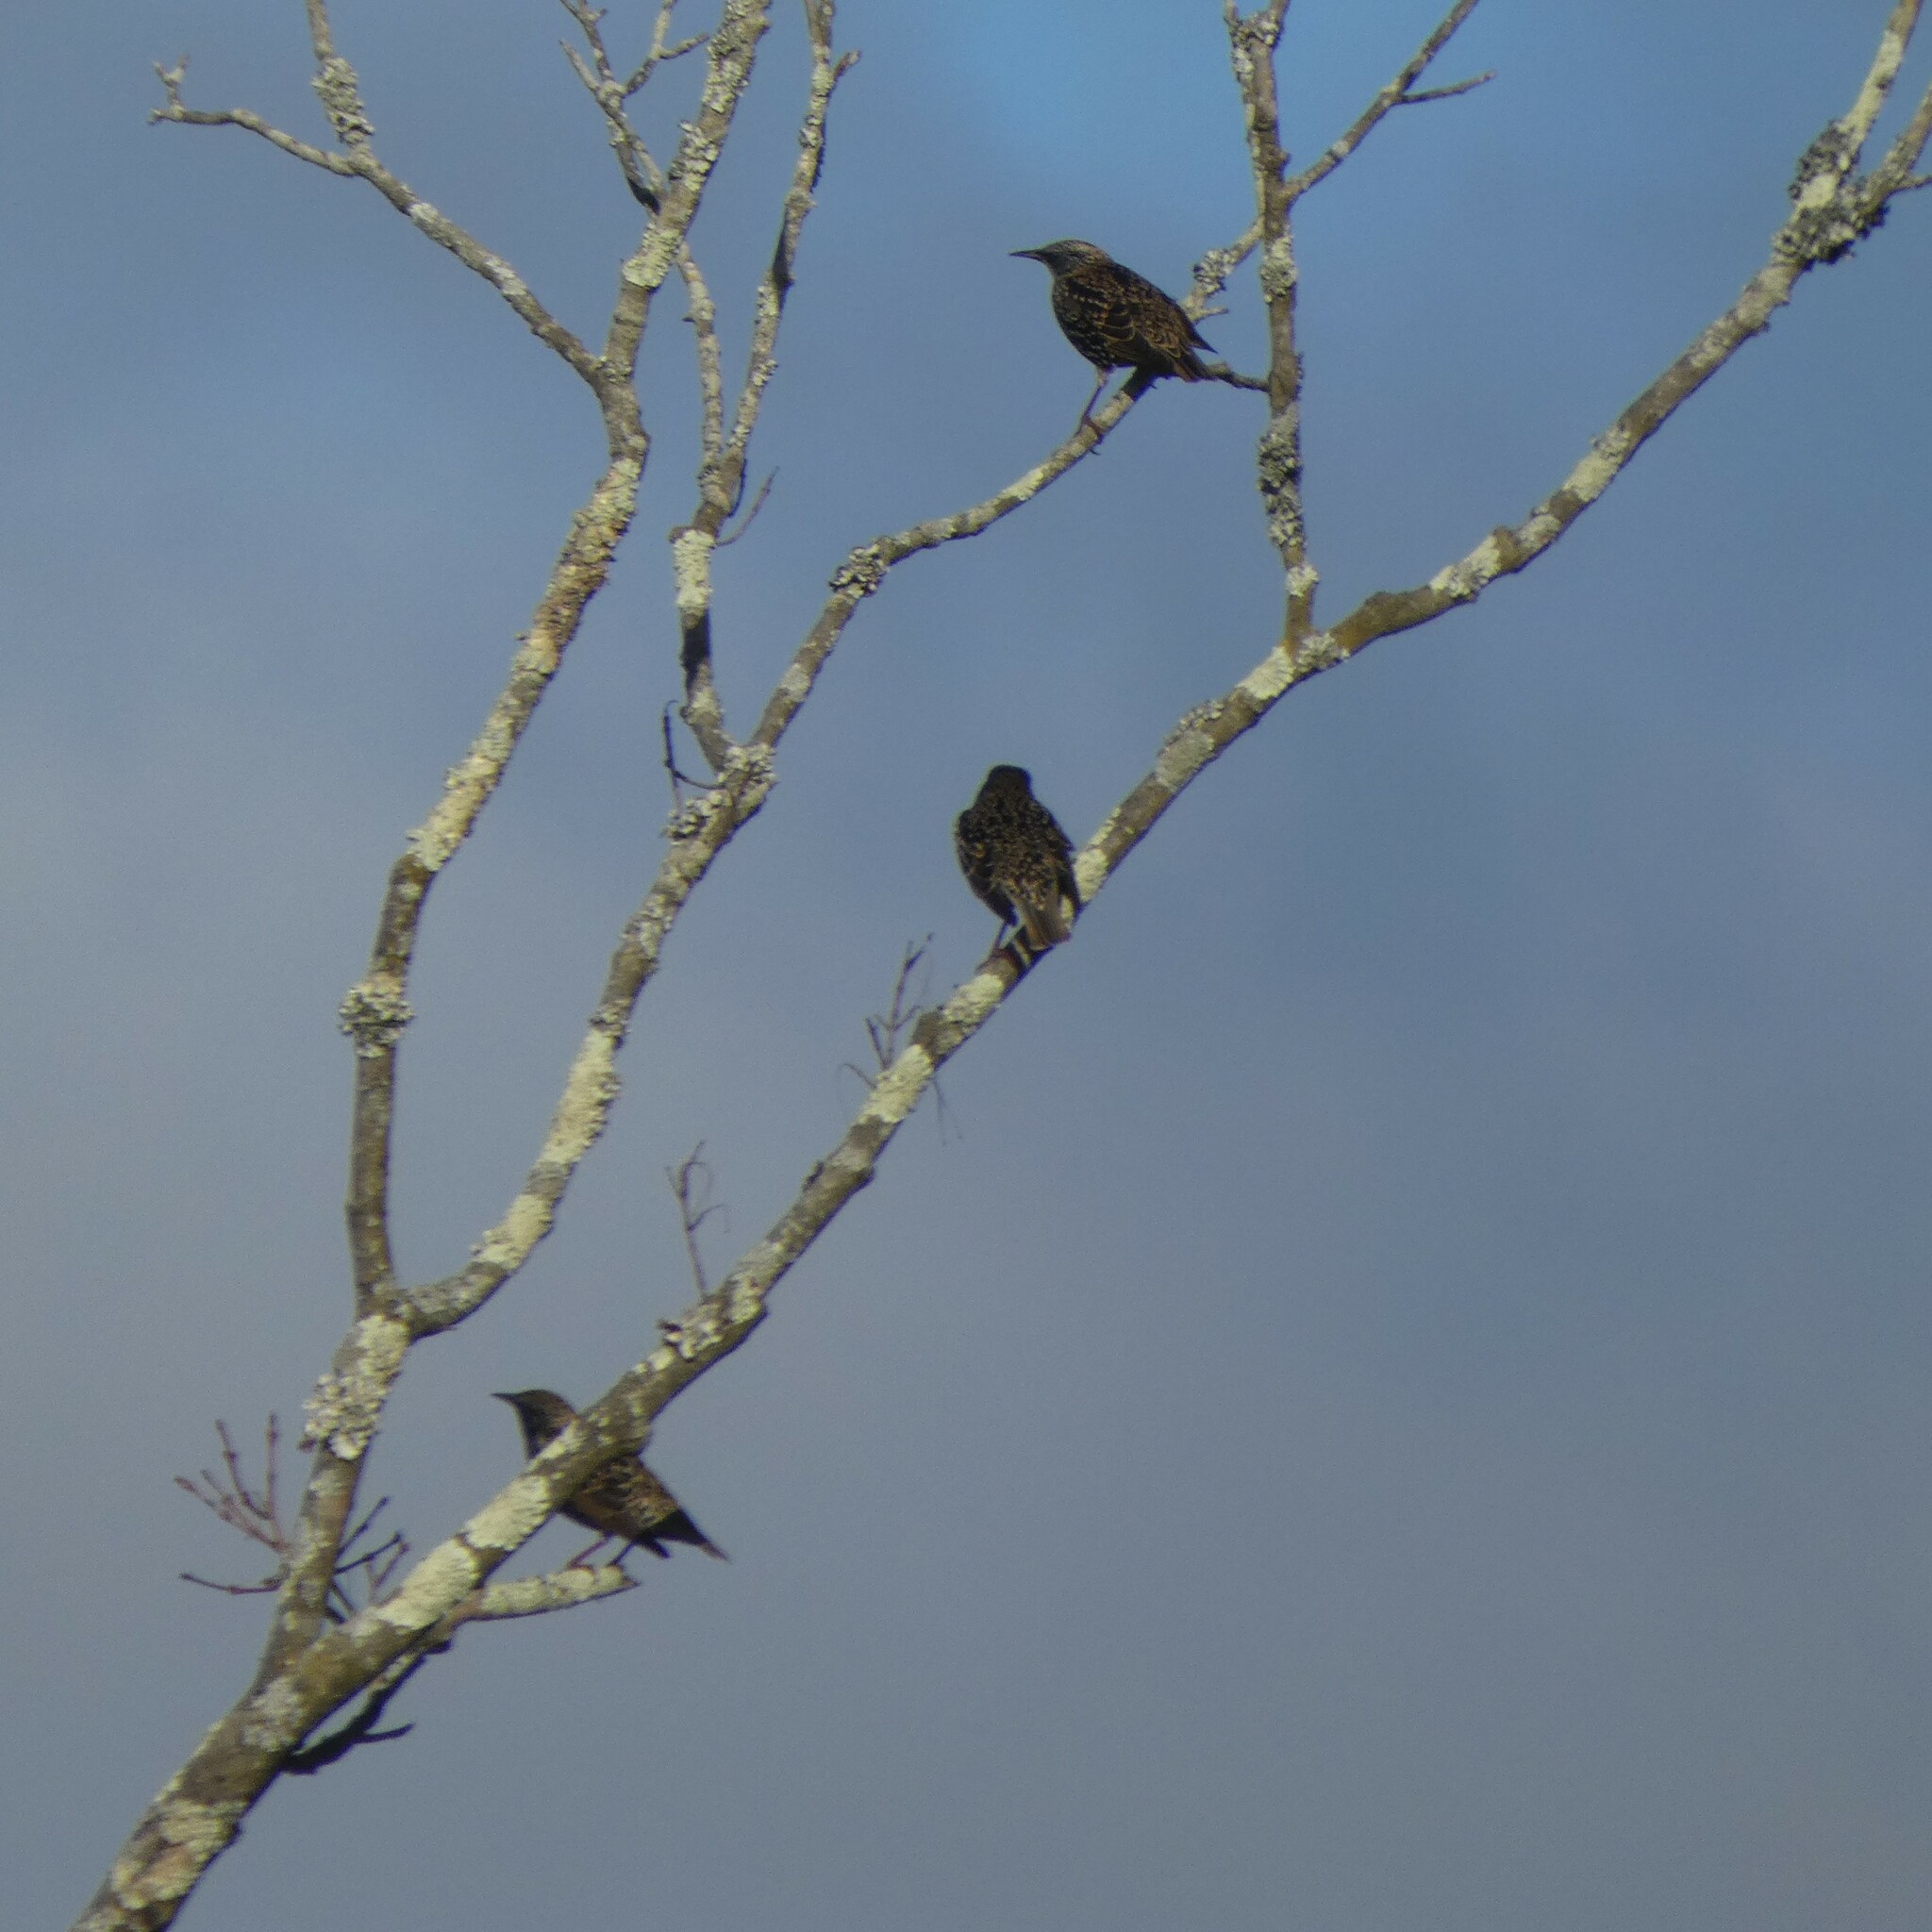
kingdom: Animalia
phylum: Chordata
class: Aves
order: Passeriformes
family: Sturnidae
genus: Sturnus
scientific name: Sturnus vulgaris
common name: Common starling
